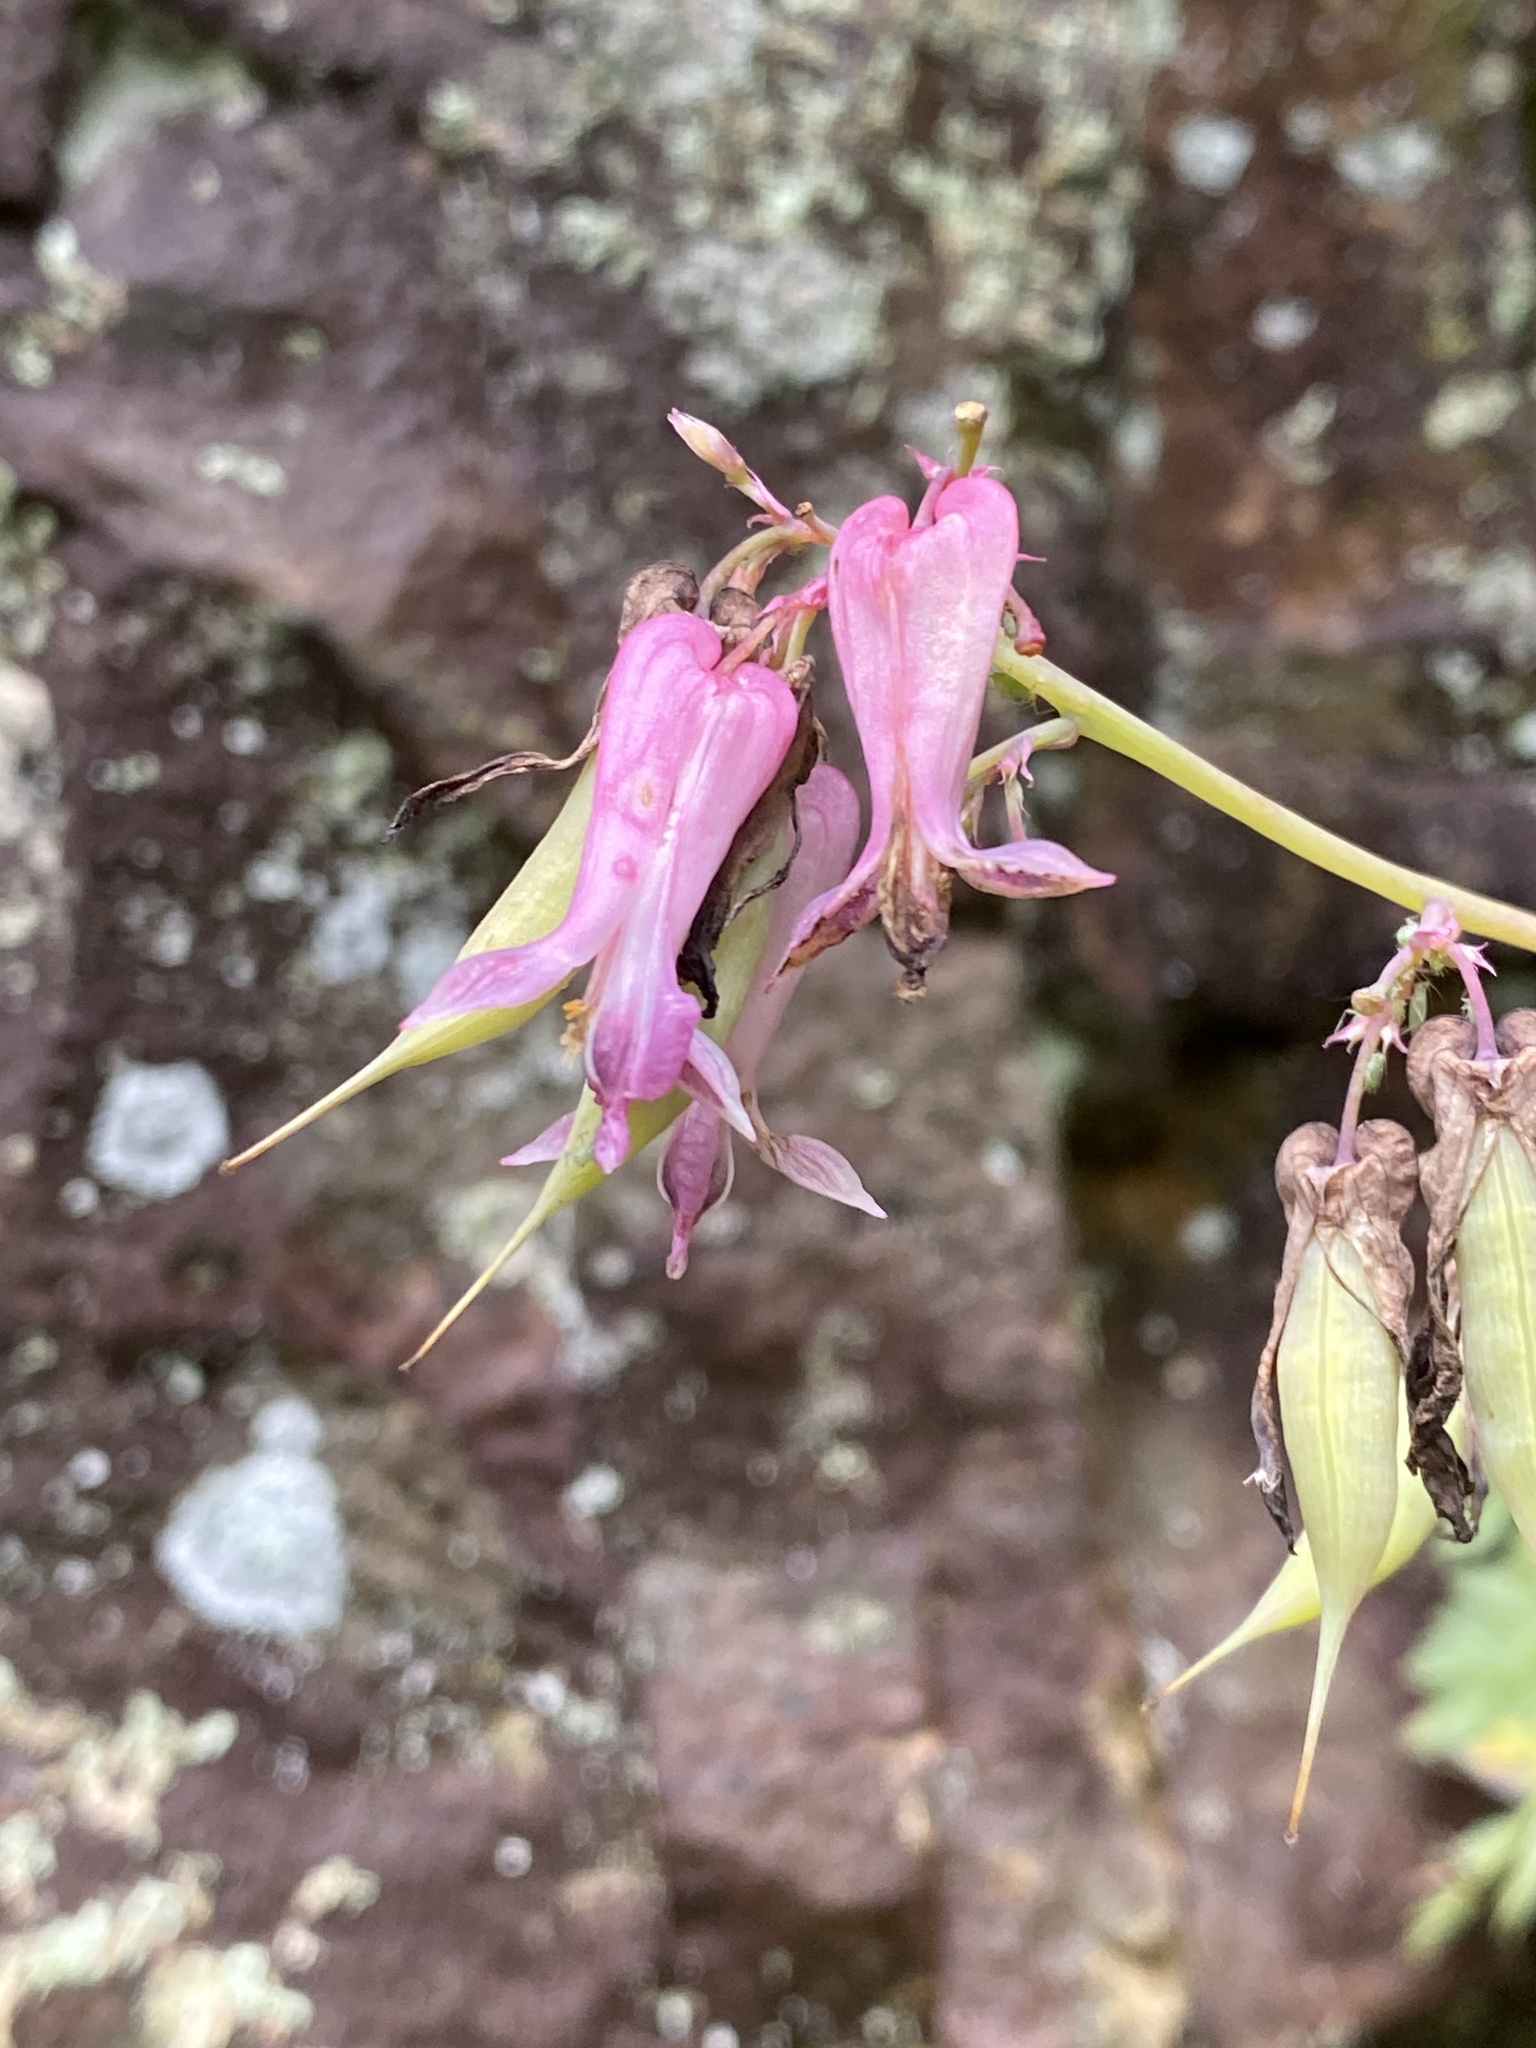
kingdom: Plantae
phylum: Tracheophyta
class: Magnoliopsida
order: Ranunculales
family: Papaveraceae
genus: Dicentra
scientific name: Dicentra eximia
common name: Turkey-corn
